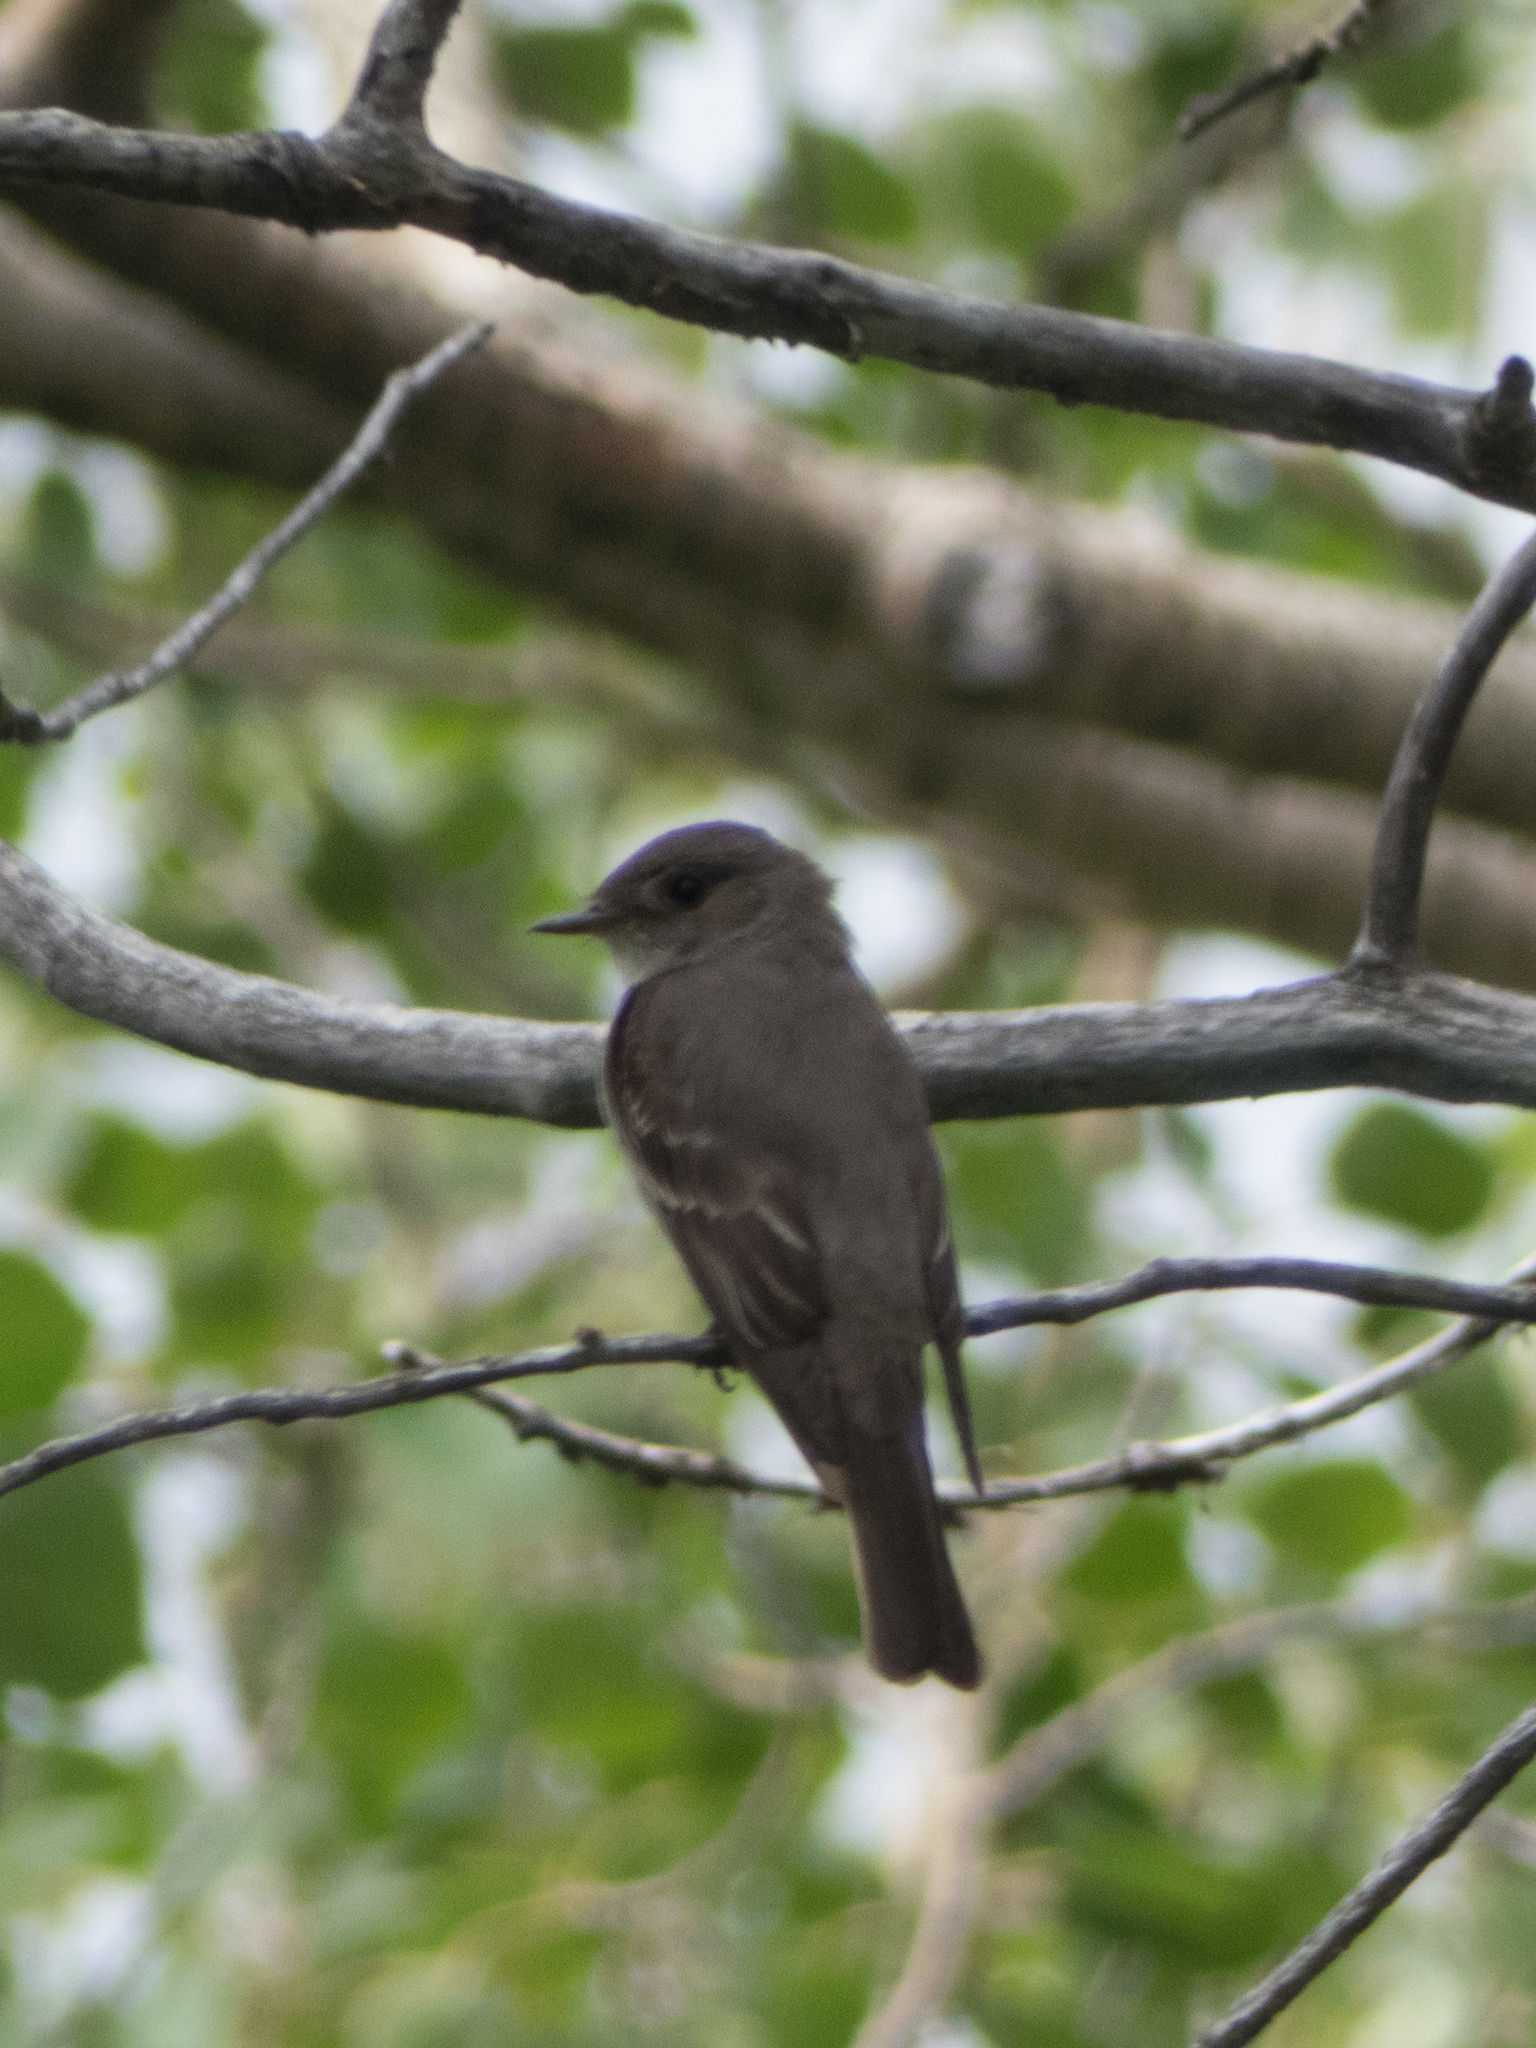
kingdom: Animalia
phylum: Chordata
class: Aves
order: Passeriformes
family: Tyrannidae
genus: Contopus
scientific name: Contopus sordidulus
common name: Western wood-pewee
